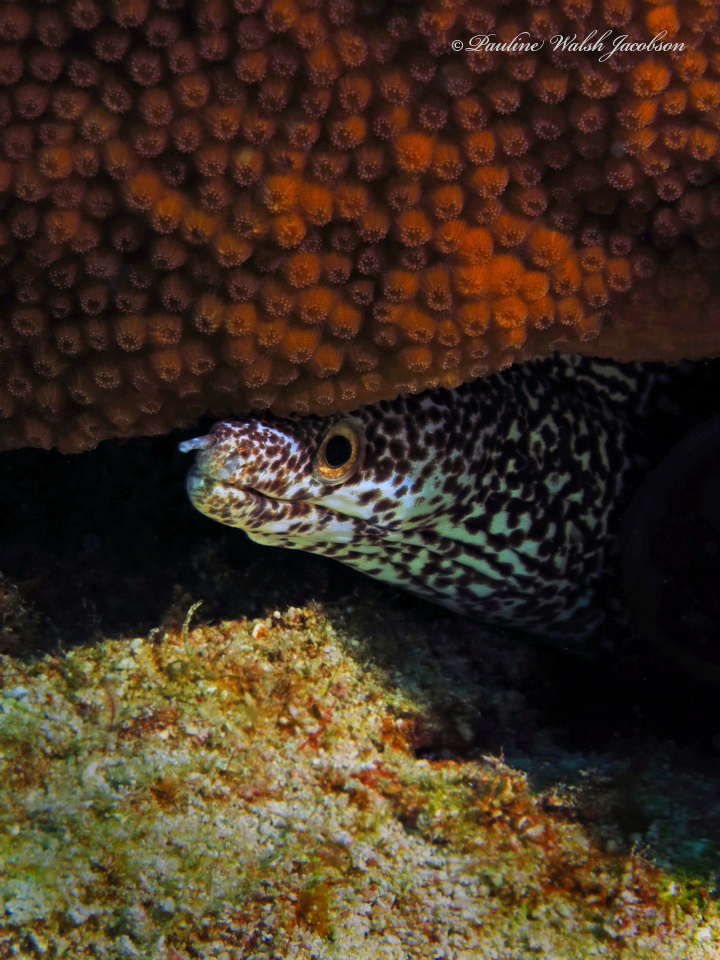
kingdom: Animalia
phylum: Chordata
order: Anguilliformes
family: Muraenidae
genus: Gymnothorax
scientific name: Gymnothorax moringa
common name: Spotted moray
